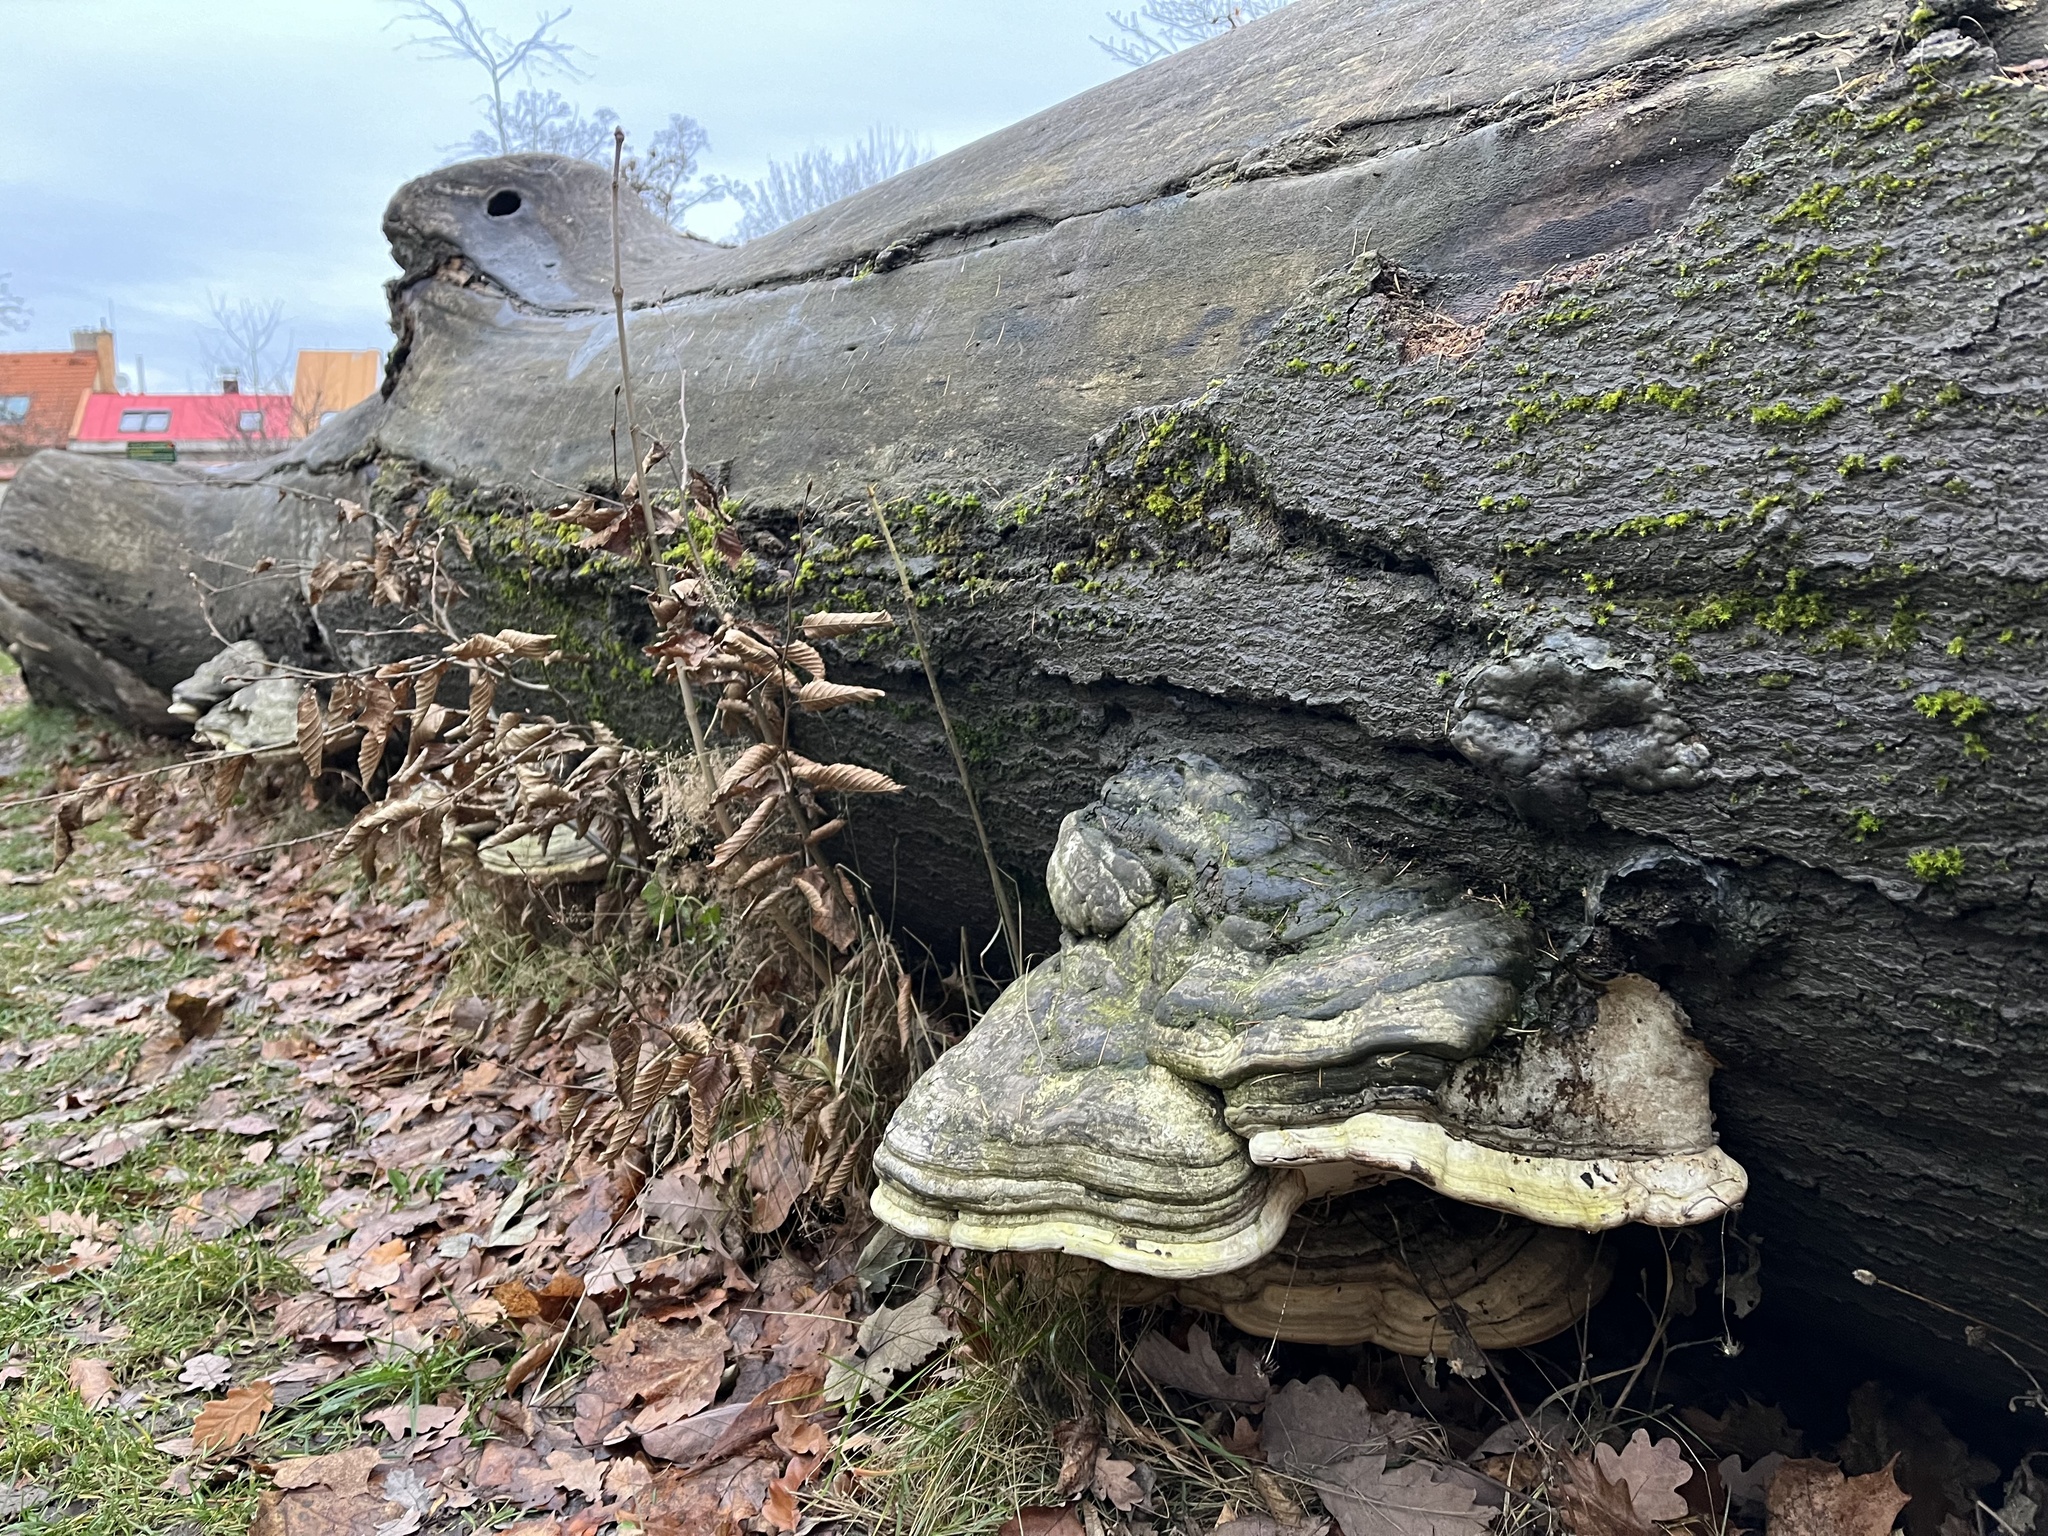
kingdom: Fungi
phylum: Basidiomycota
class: Agaricomycetes
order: Polyporales
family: Polyporaceae
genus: Fomes
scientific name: Fomes fomentarius
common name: Hoof fungus
